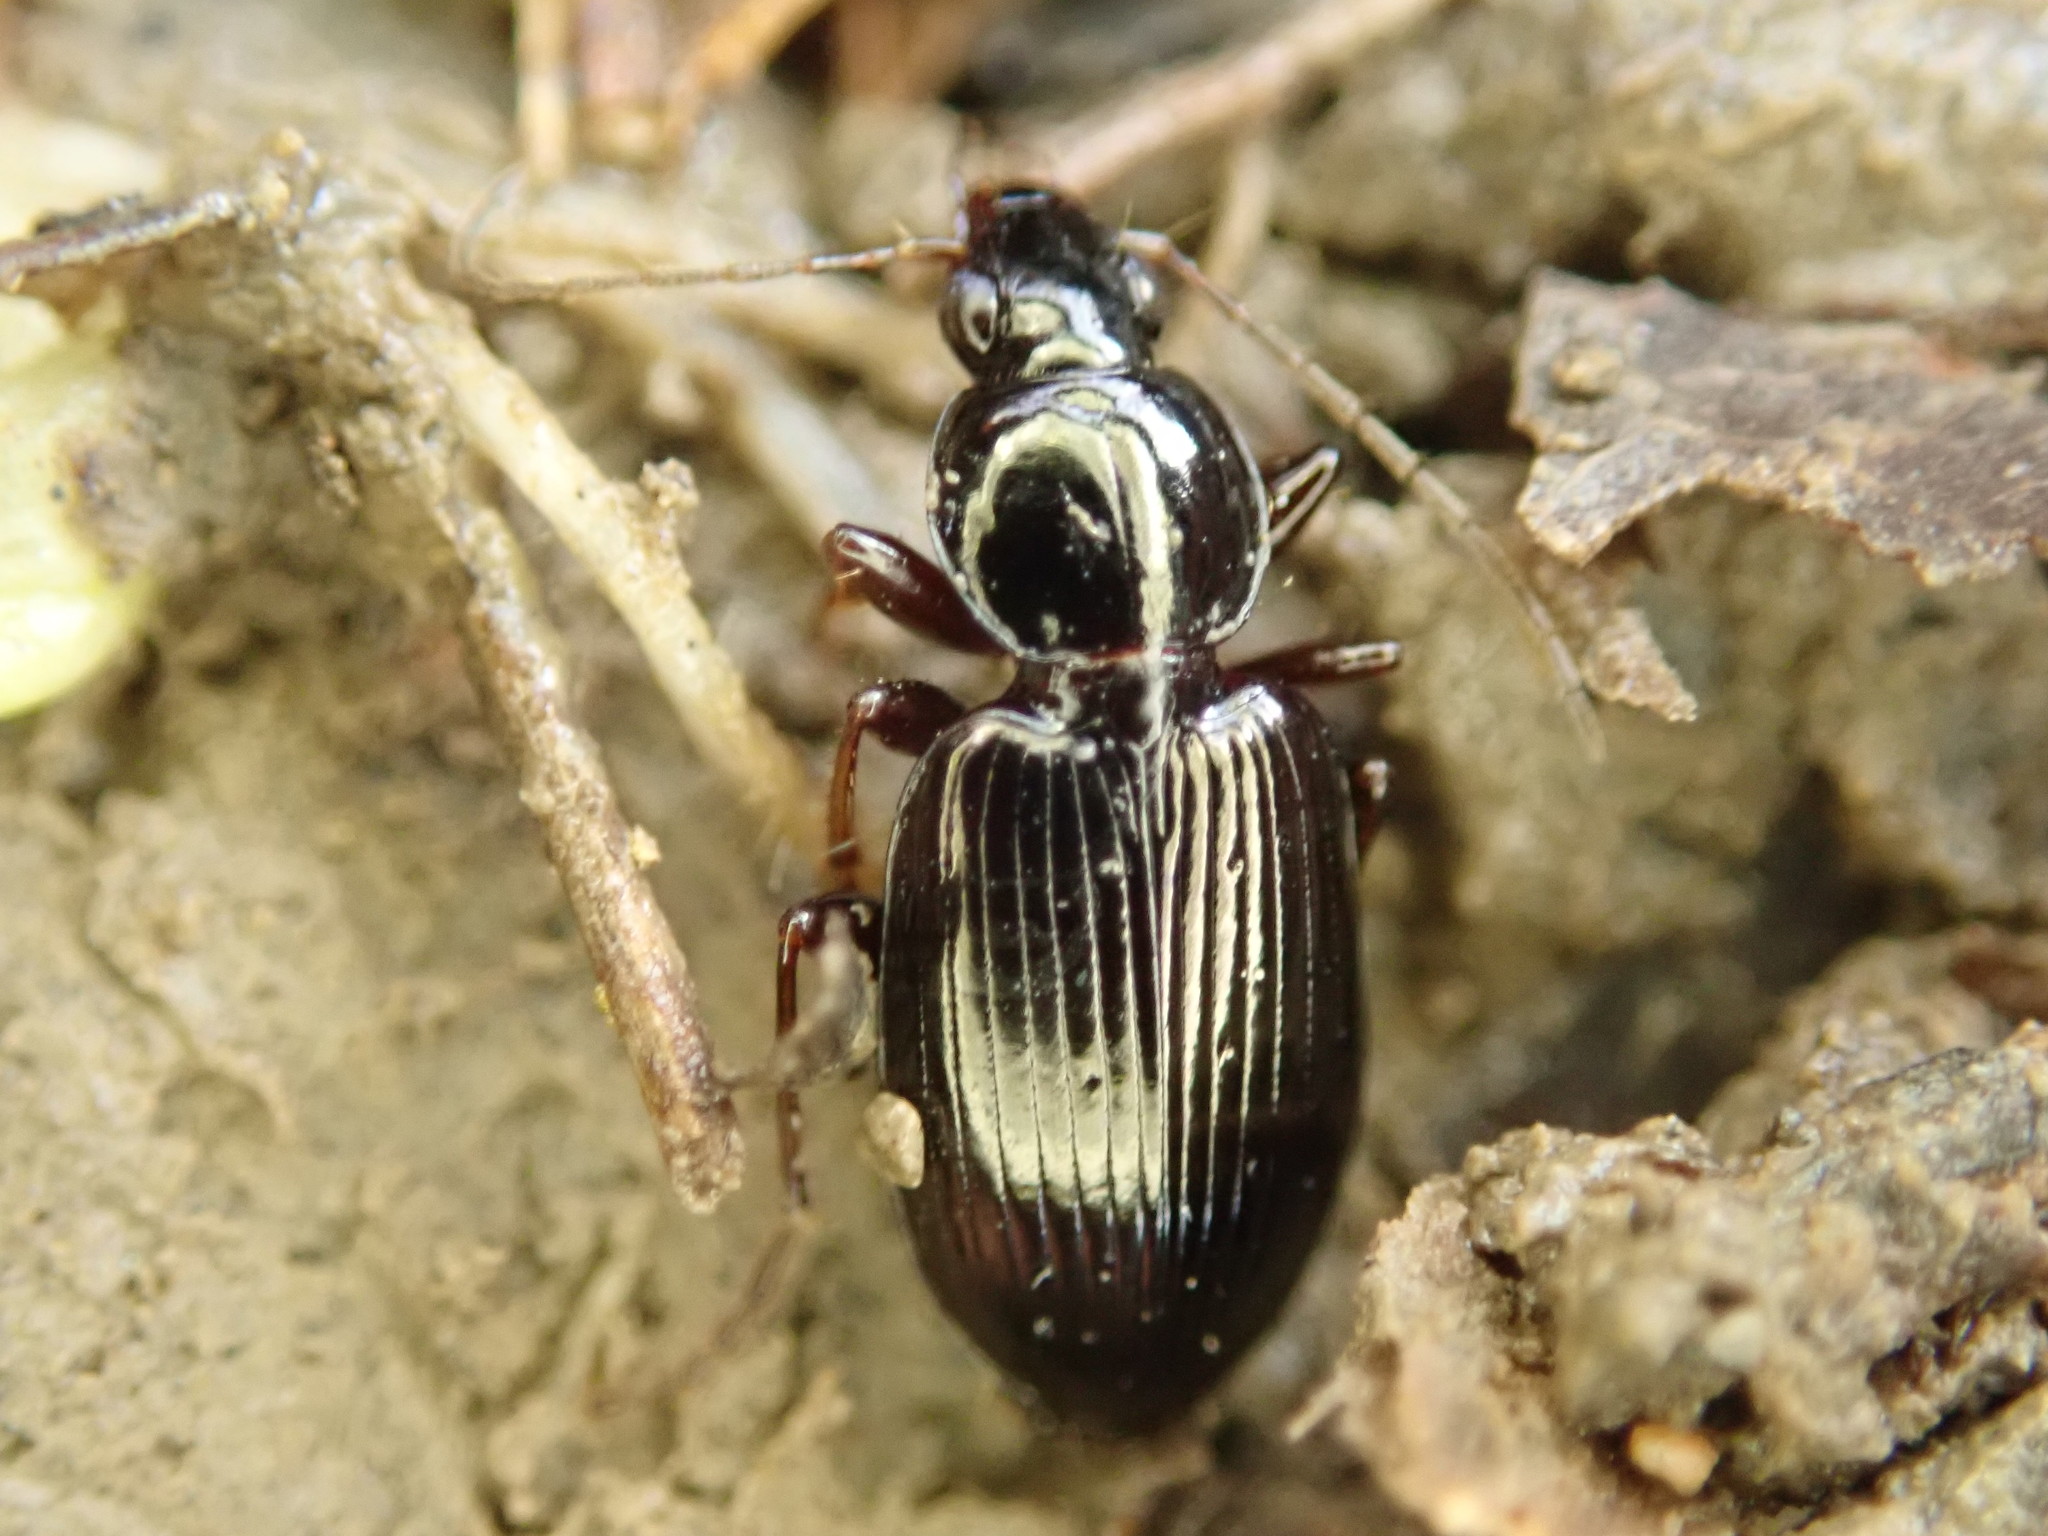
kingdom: Animalia
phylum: Arthropoda
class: Insecta
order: Coleoptera
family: Carabidae
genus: Agonum
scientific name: Agonum punctiforme
